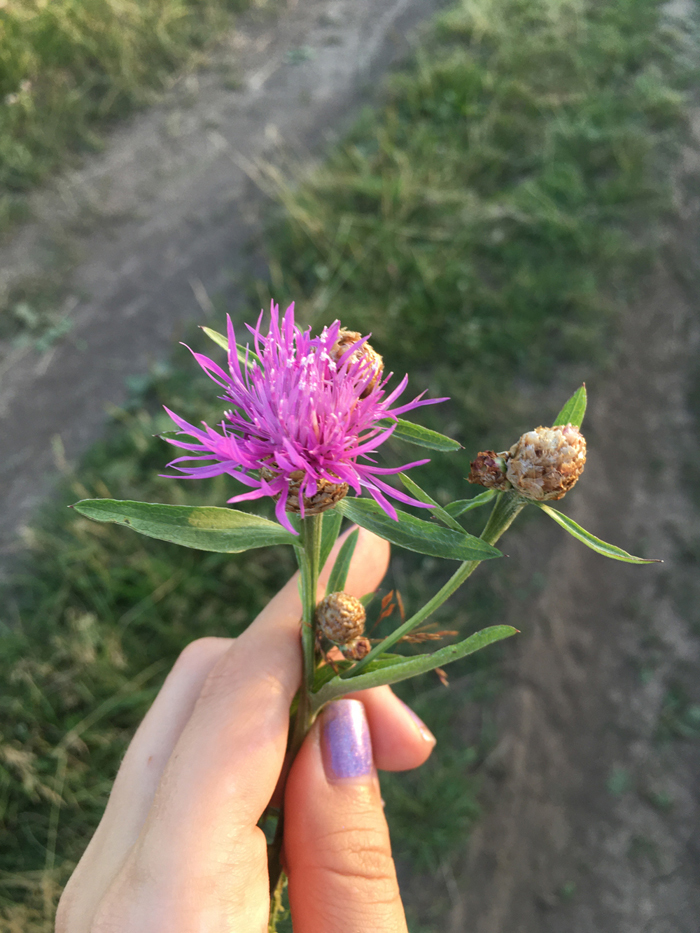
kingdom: Plantae
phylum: Tracheophyta
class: Magnoliopsida
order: Asterales
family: Asteraceae
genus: Centaurea
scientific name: Centaurea jacea
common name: Brown knapweed
